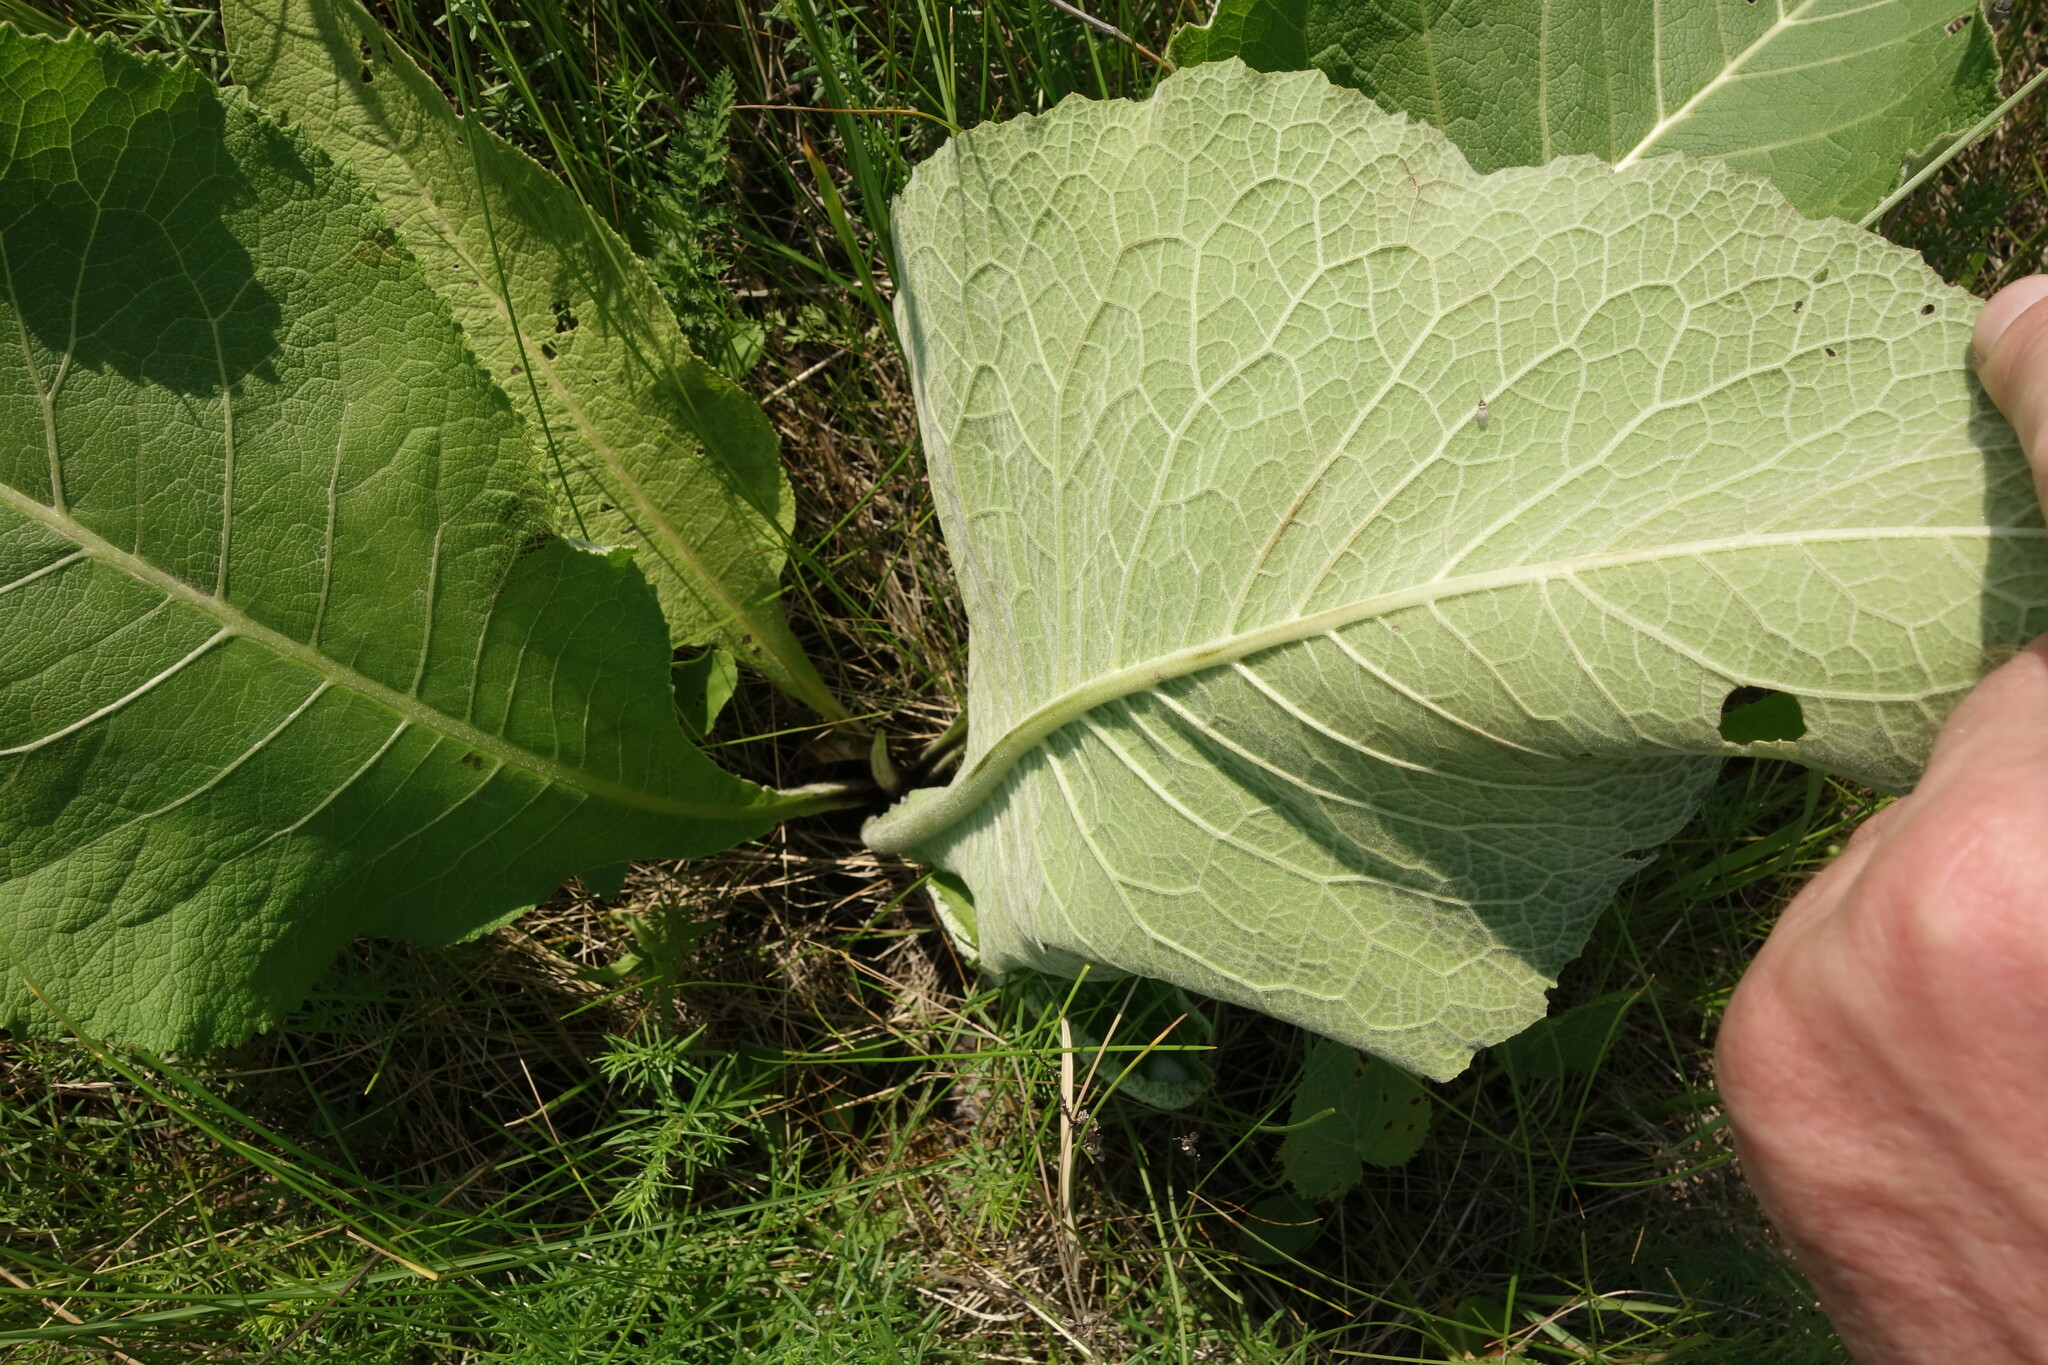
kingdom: Plantae
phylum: Tracheophyta
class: Magnoliopsida
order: Asterales
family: Asteraceae
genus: Inula
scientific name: Inula helenium
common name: Elecampane
